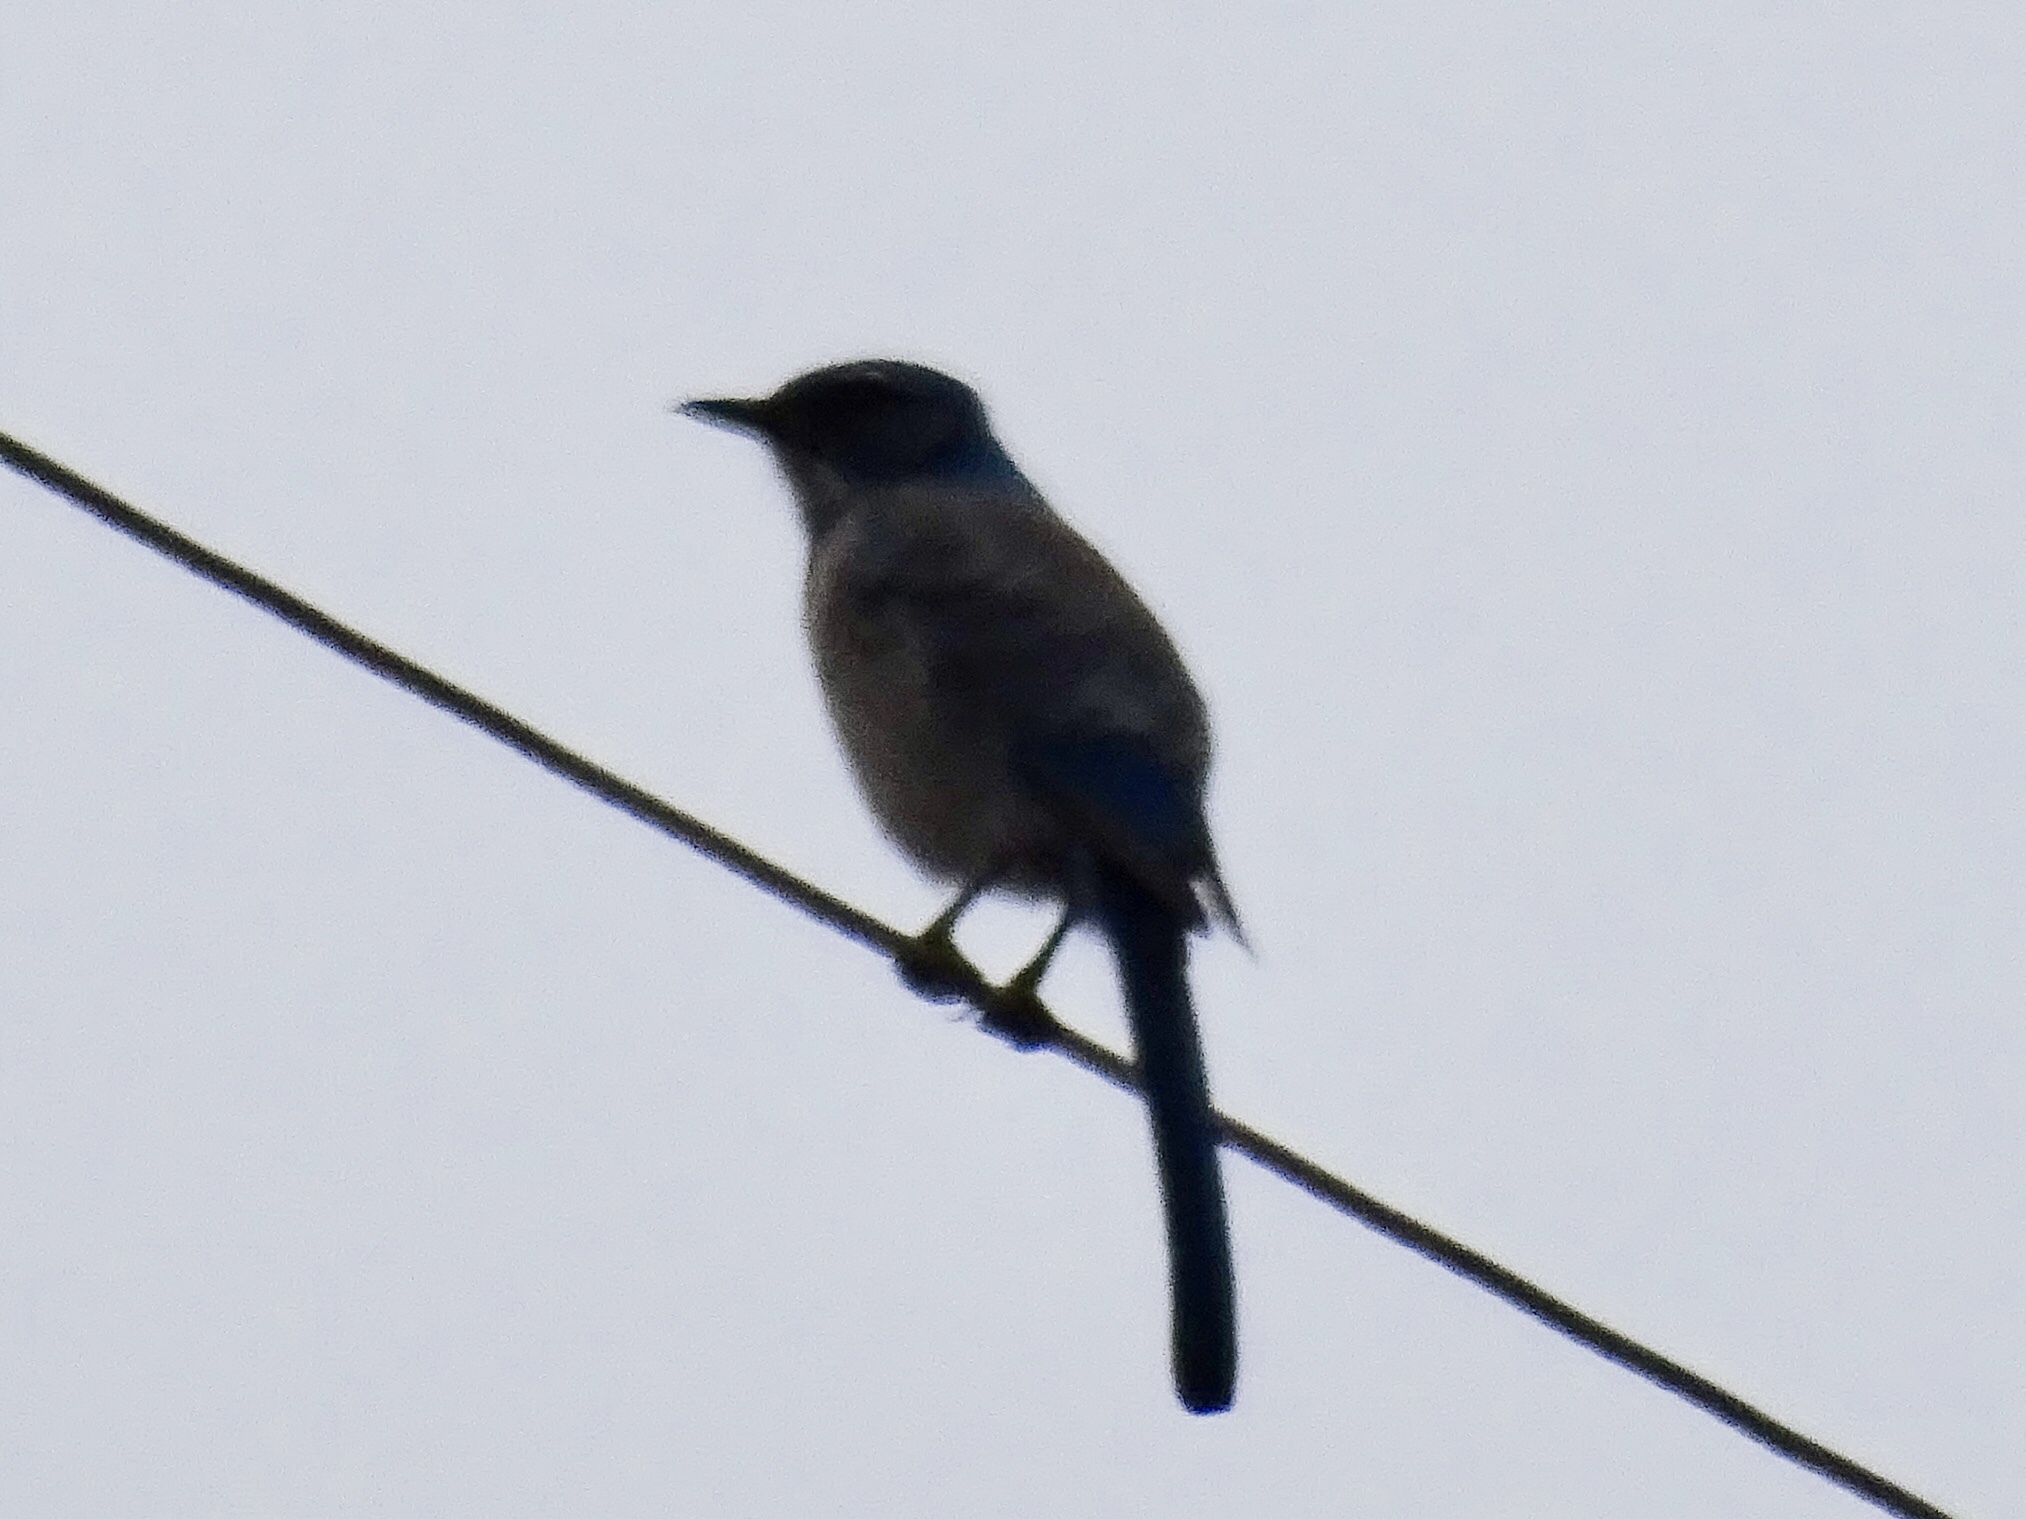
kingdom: Animalia
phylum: Chordata
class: Aves
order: Passeriformes
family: Corvidae
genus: Aphelocoma
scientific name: Aphelocoma woodhouseii
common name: Woodhouse's scrub-jay
